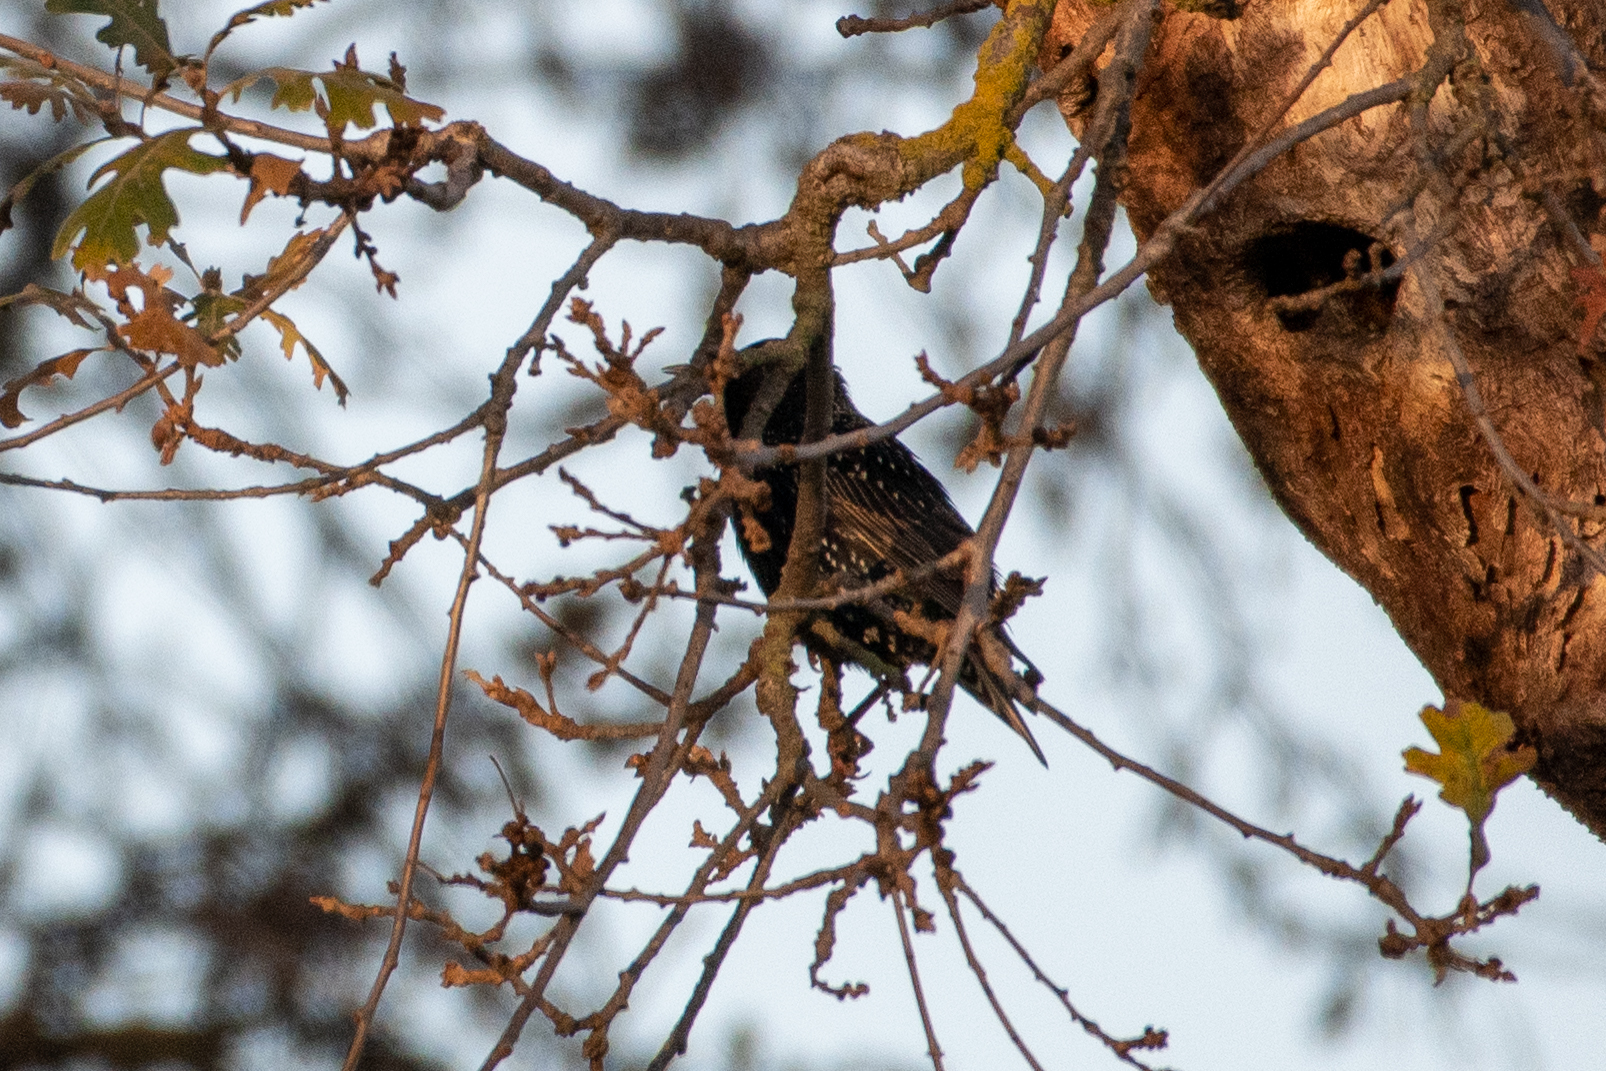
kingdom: Animalia
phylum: Chordata
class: Aves
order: Passeriformes
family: Sturnidae
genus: Sturnus
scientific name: Sturnus vulgaris
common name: Common starling
